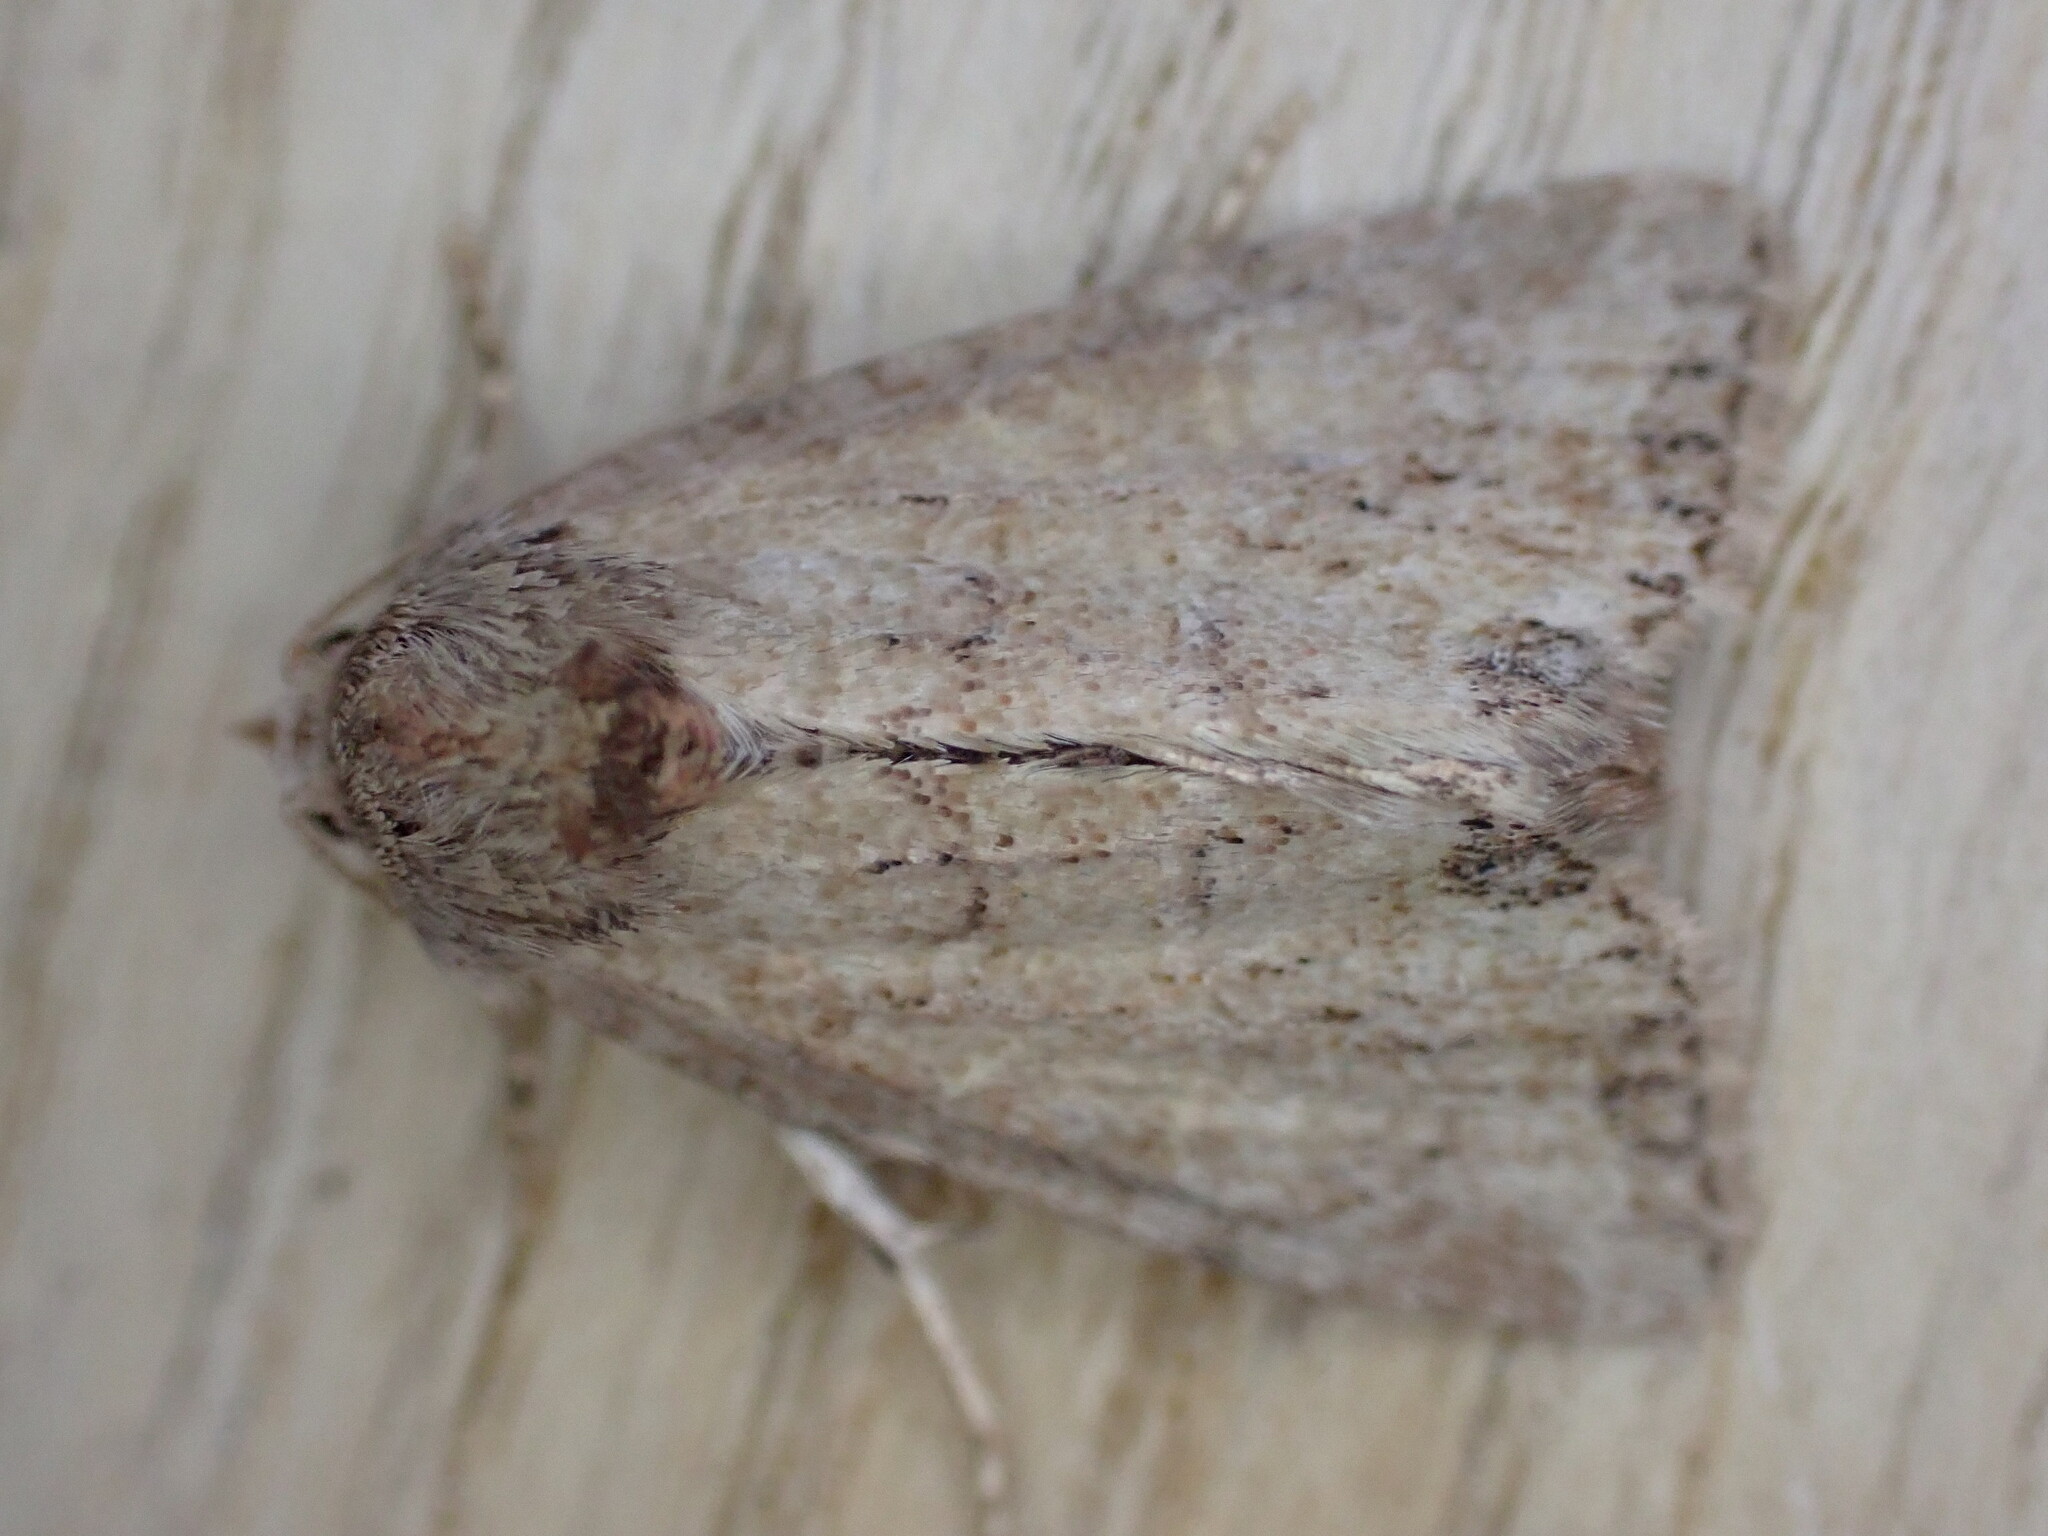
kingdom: Animalia
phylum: Arthropoda
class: Insecta
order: Lepidoptera
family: Noctuidae
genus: Mesoligia
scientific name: Mesoligia furuncula
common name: Cloaked minor
